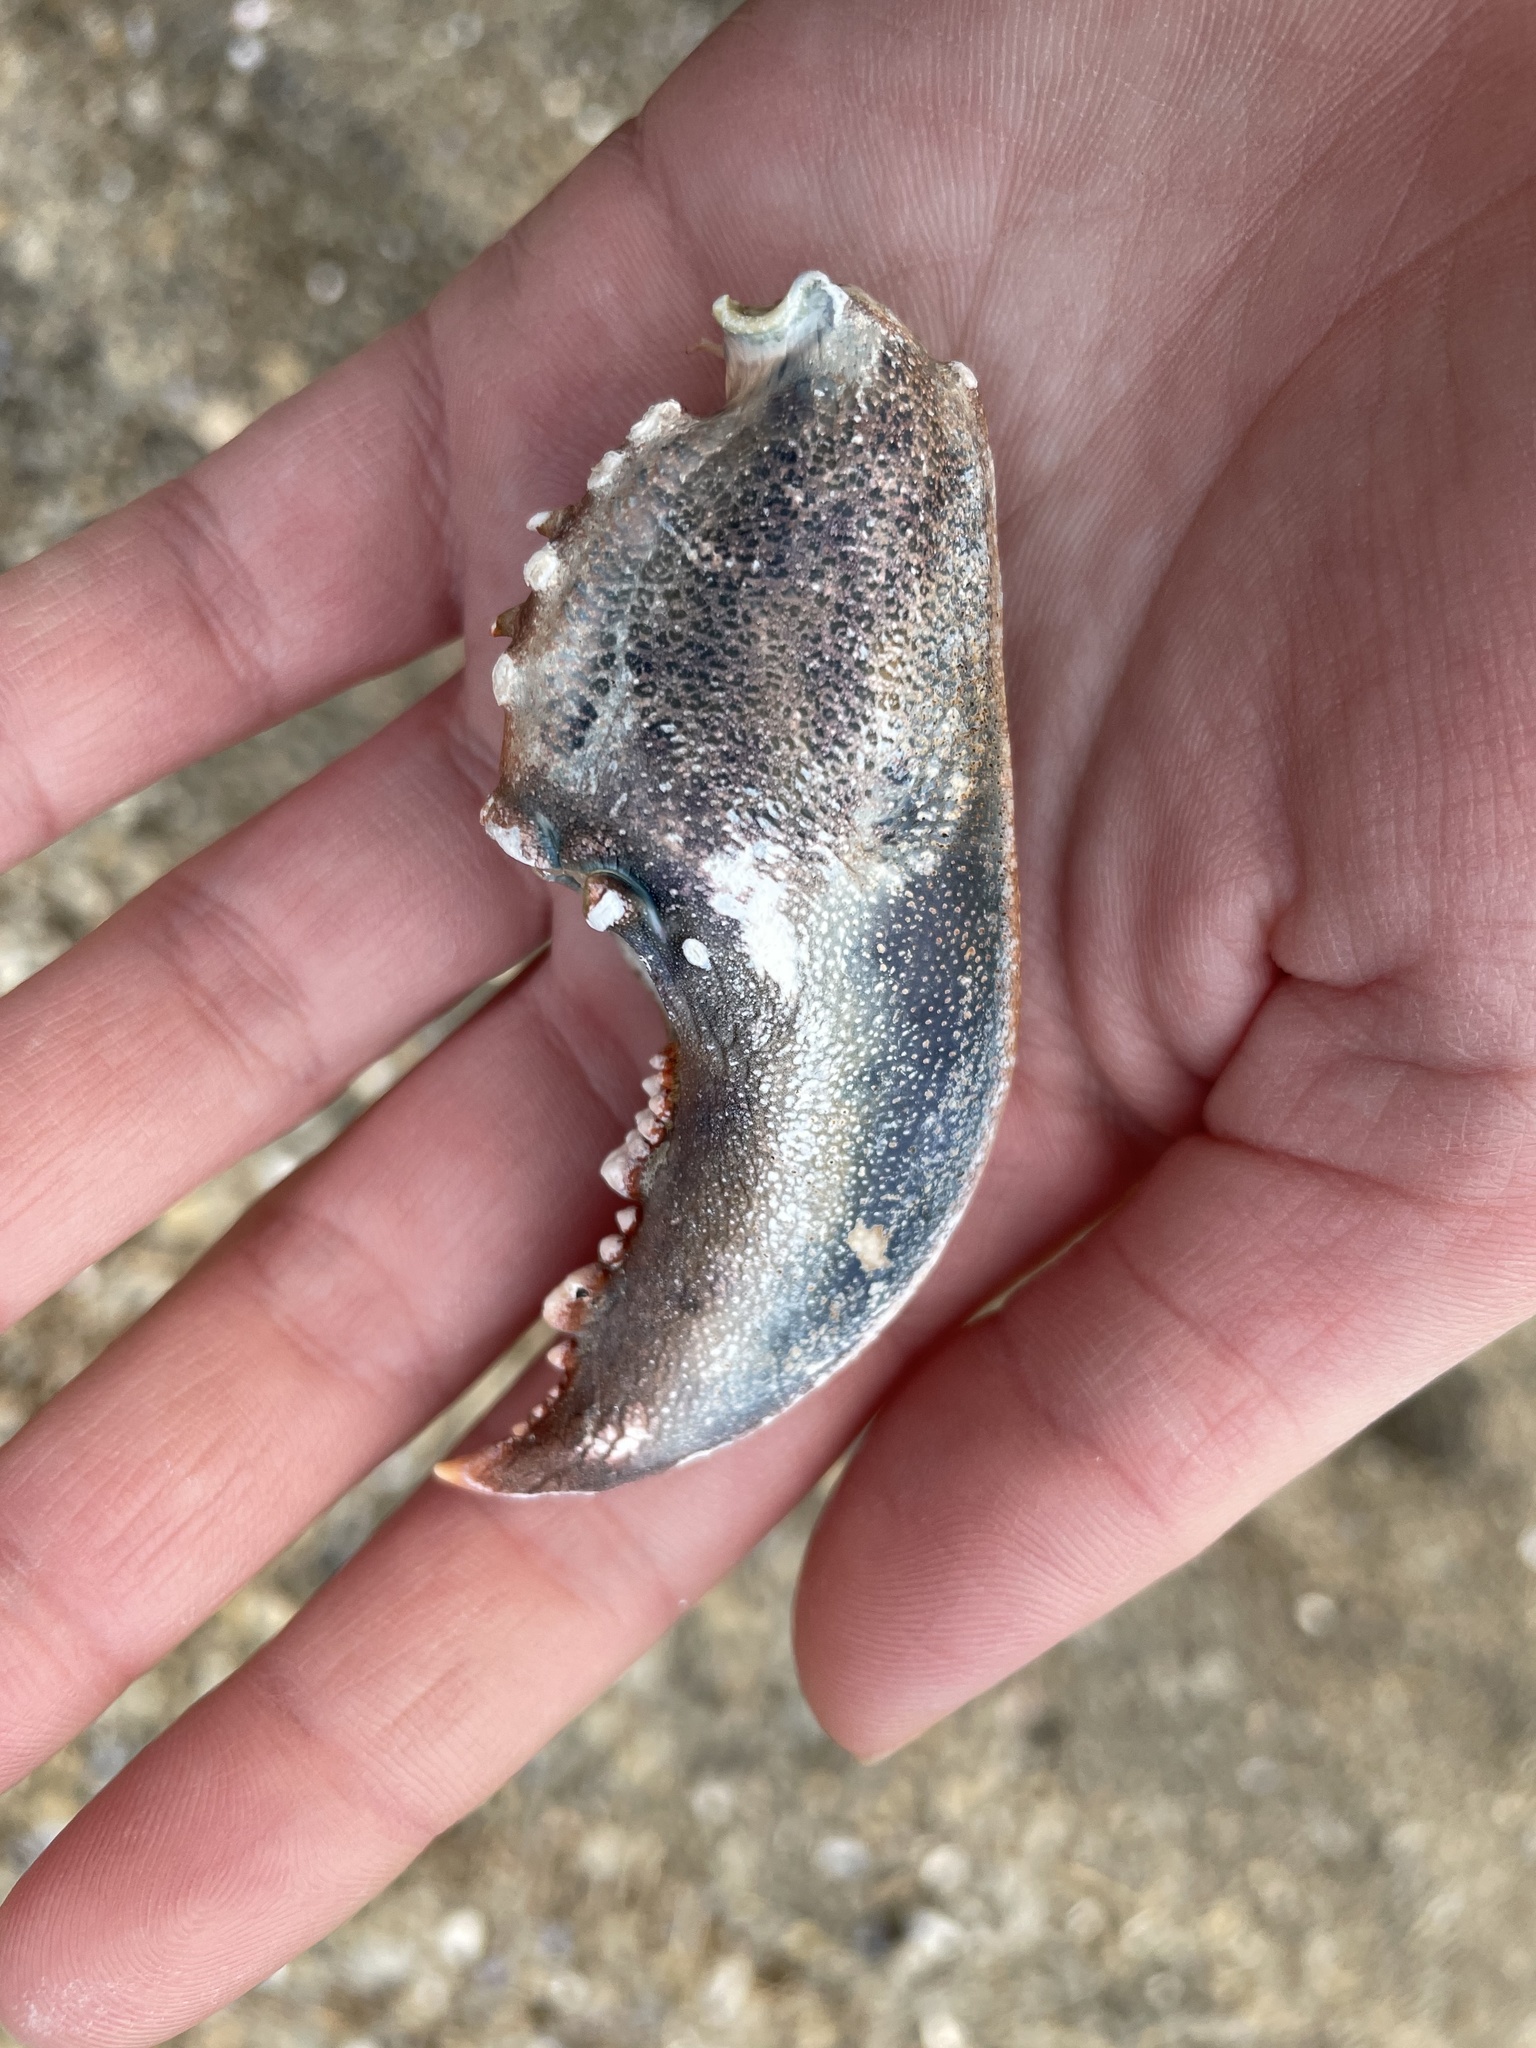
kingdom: Animalia
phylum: Arthropoda
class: Malacostraca
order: Decapoda
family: Nephropidae
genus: Homarus
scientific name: Homarus americanus
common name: American lobster
